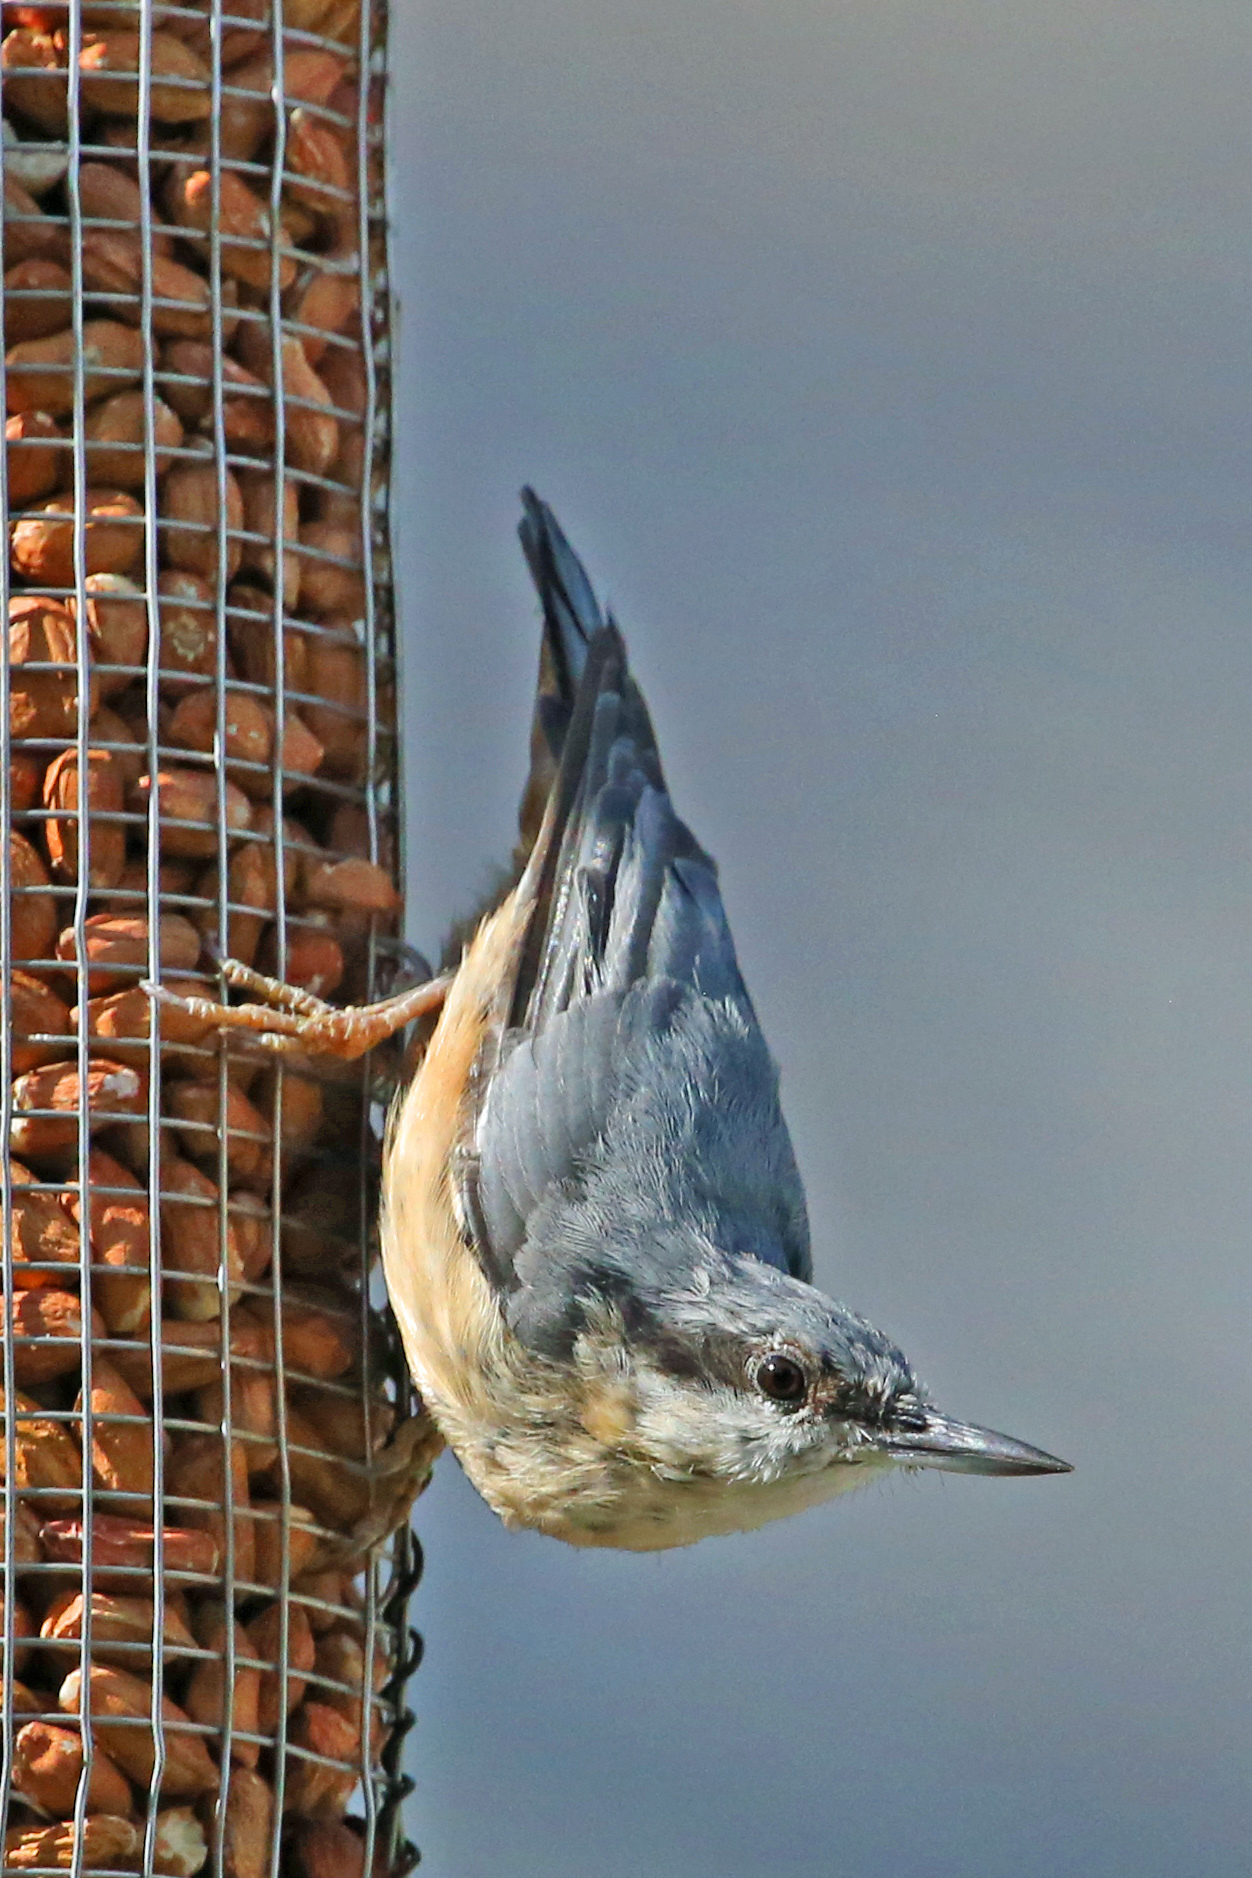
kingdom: Animalia
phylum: Chordata
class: Aves
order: Passeriformes
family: Sittidae
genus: Sitta
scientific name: Sitta europaea
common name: Eurasian nuthatch
